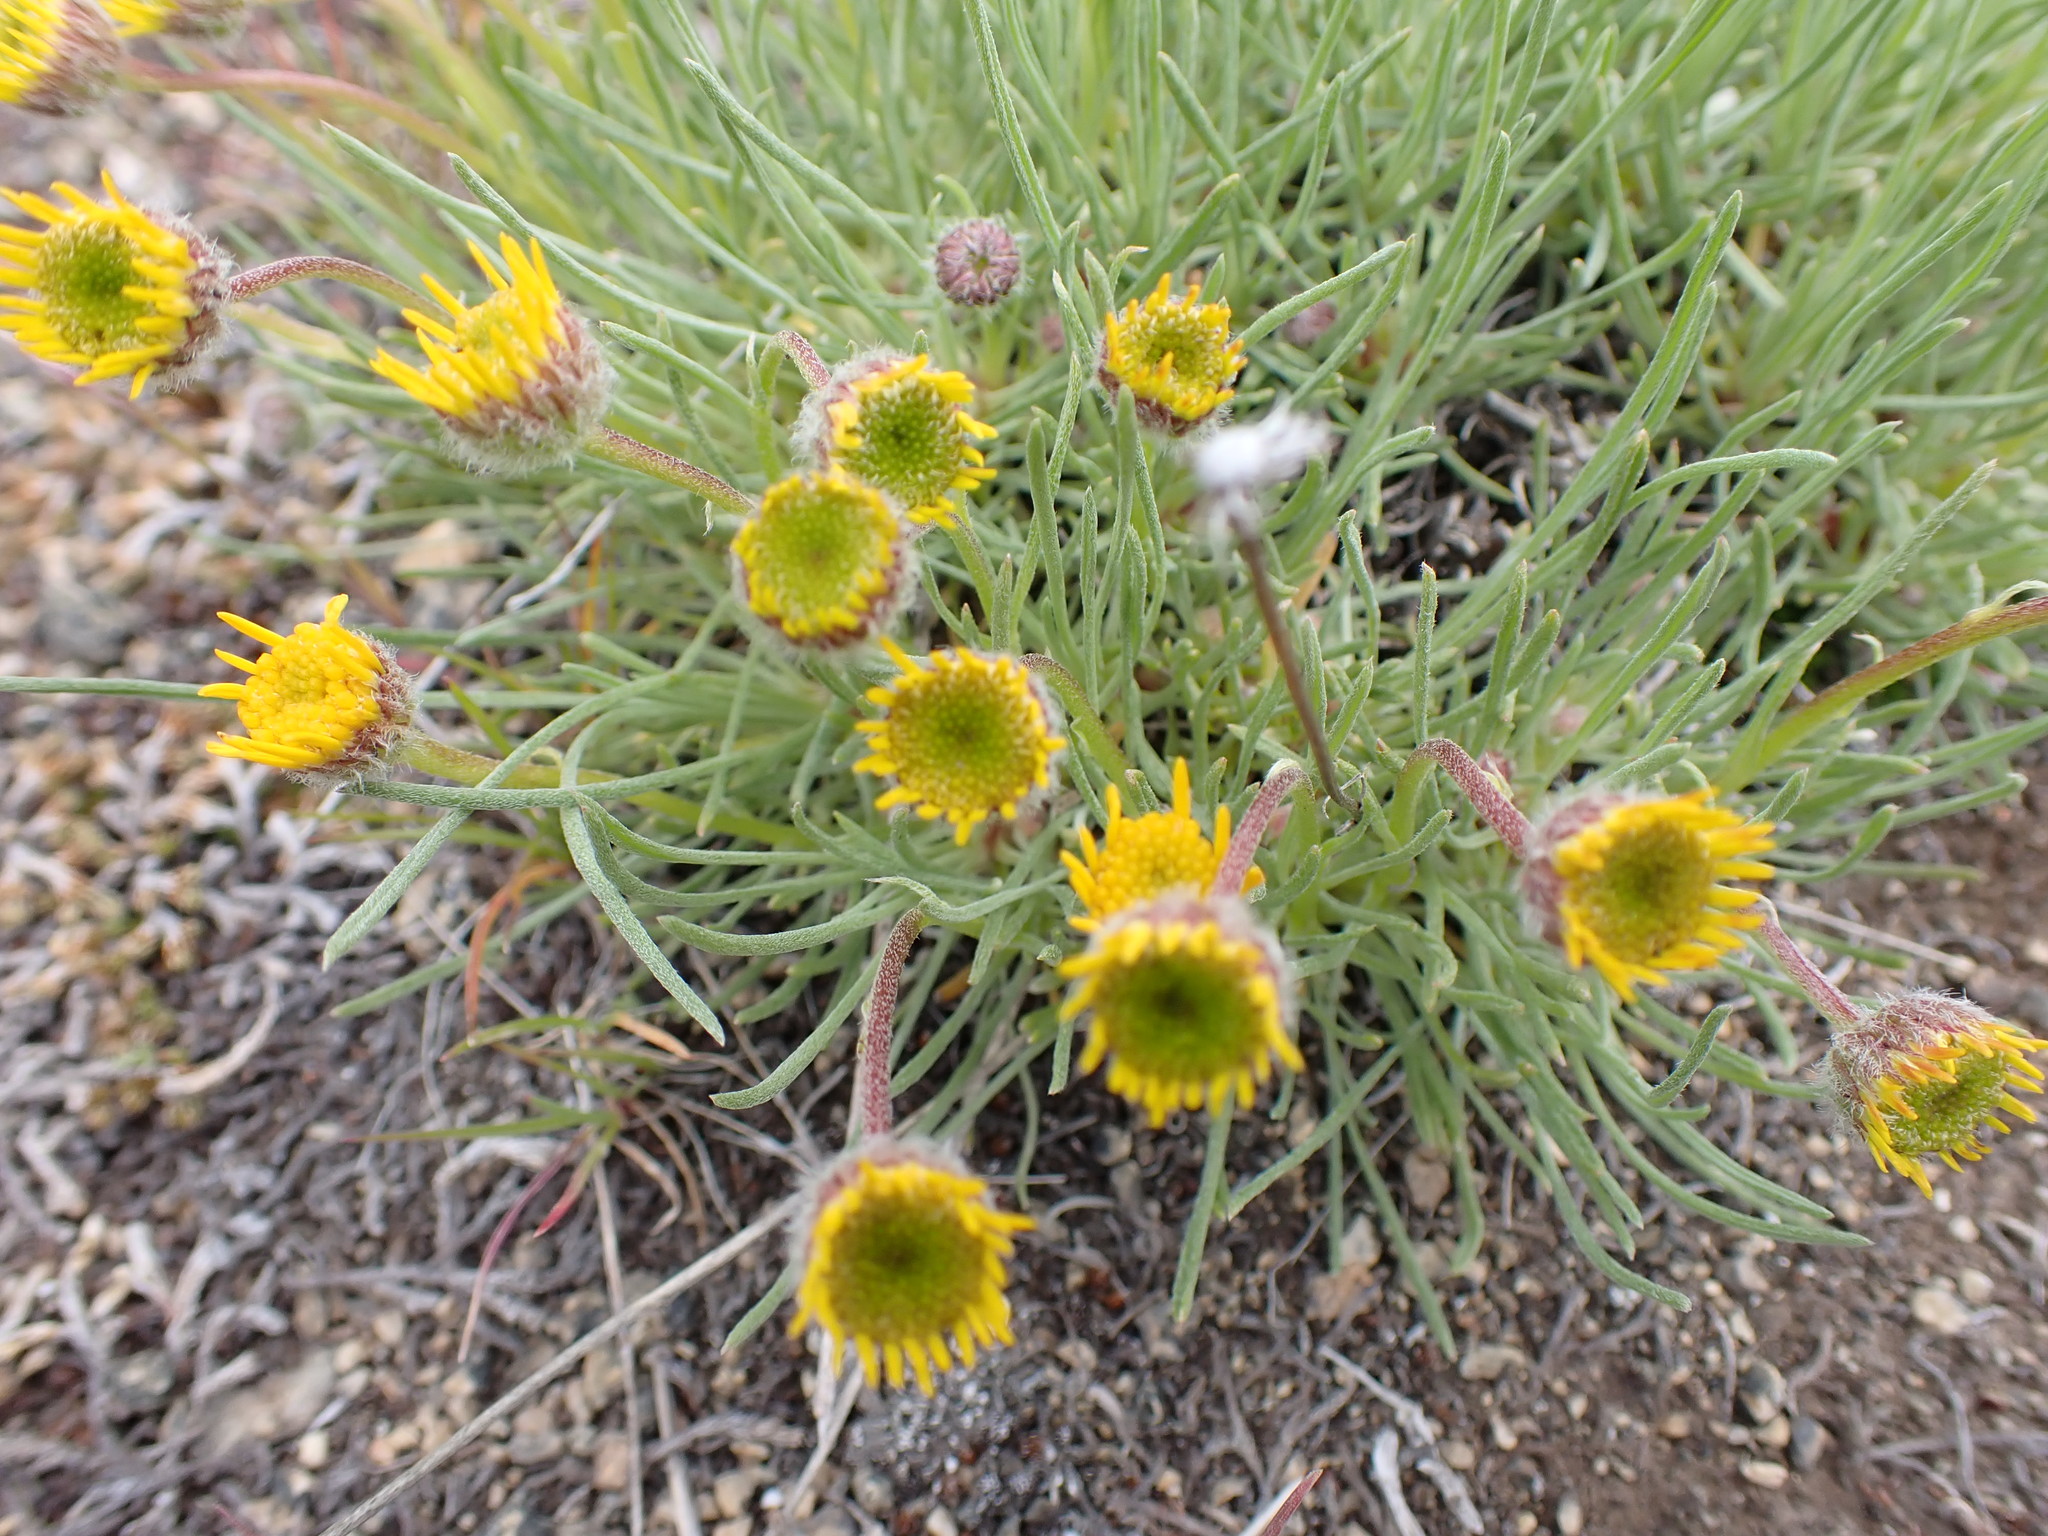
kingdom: Plantae
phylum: Tracheophyta
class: Magnoliopsida
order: Asterales
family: Asteraceae
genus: Erigeron
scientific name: Erigeron linearis
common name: Desert yellow fleabane
